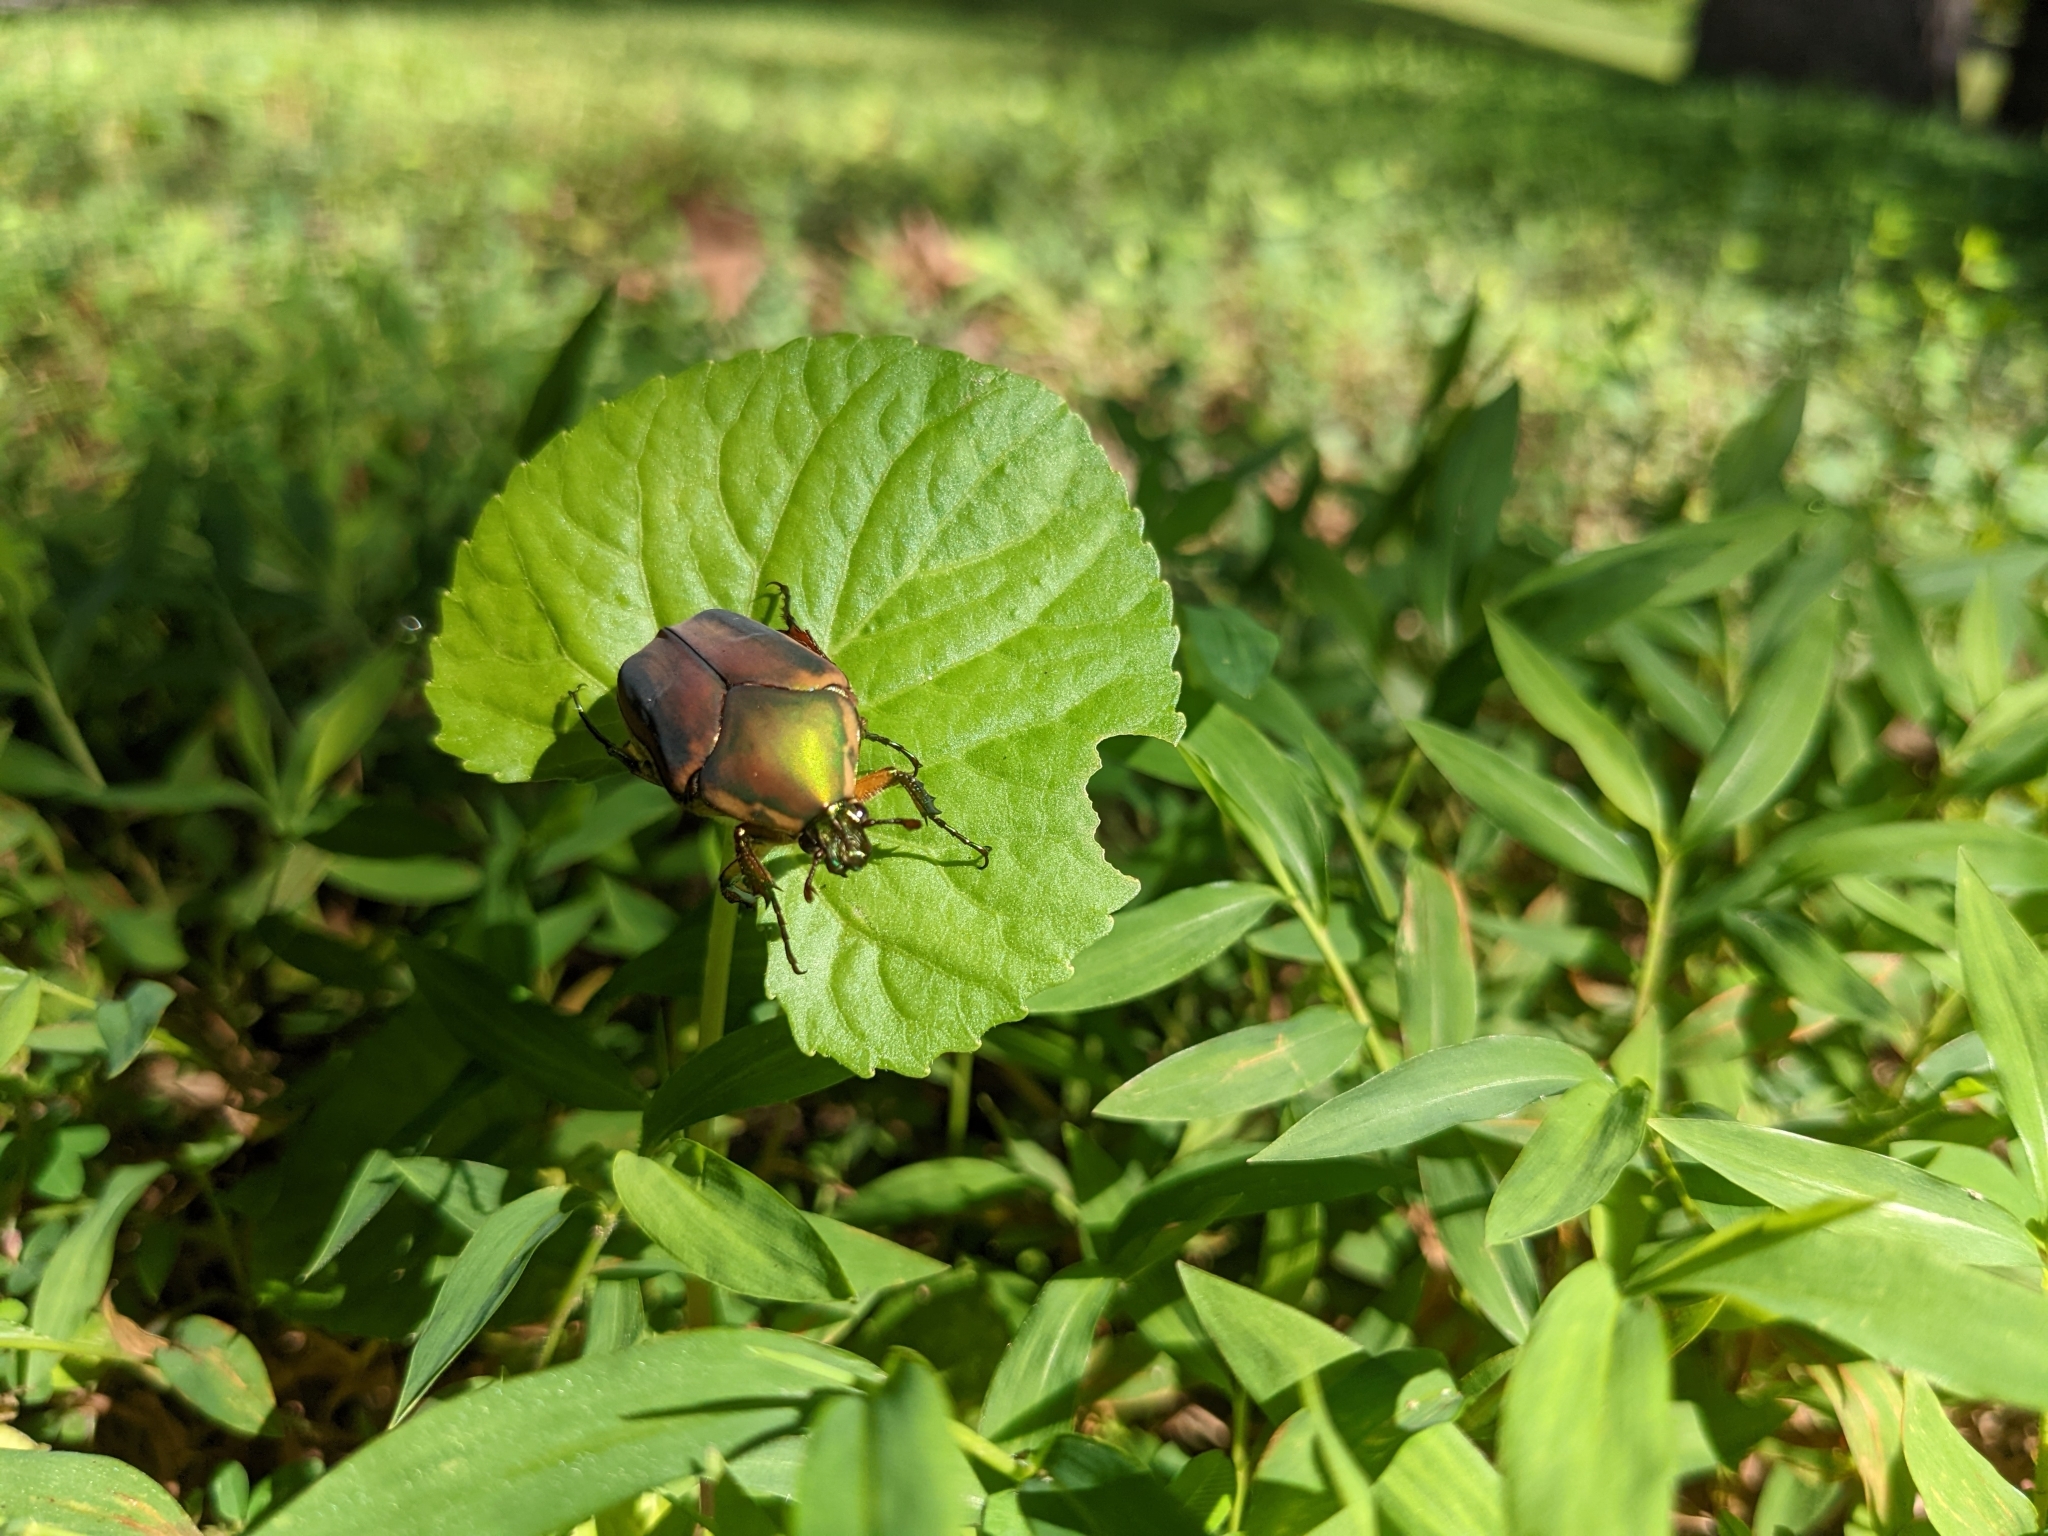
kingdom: Animalia
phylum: Arthropoda
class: Insecta
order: Coleoptera
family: Scarabaeidae
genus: Cotinis
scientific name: Cotinis nitida
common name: Common green june beetle
